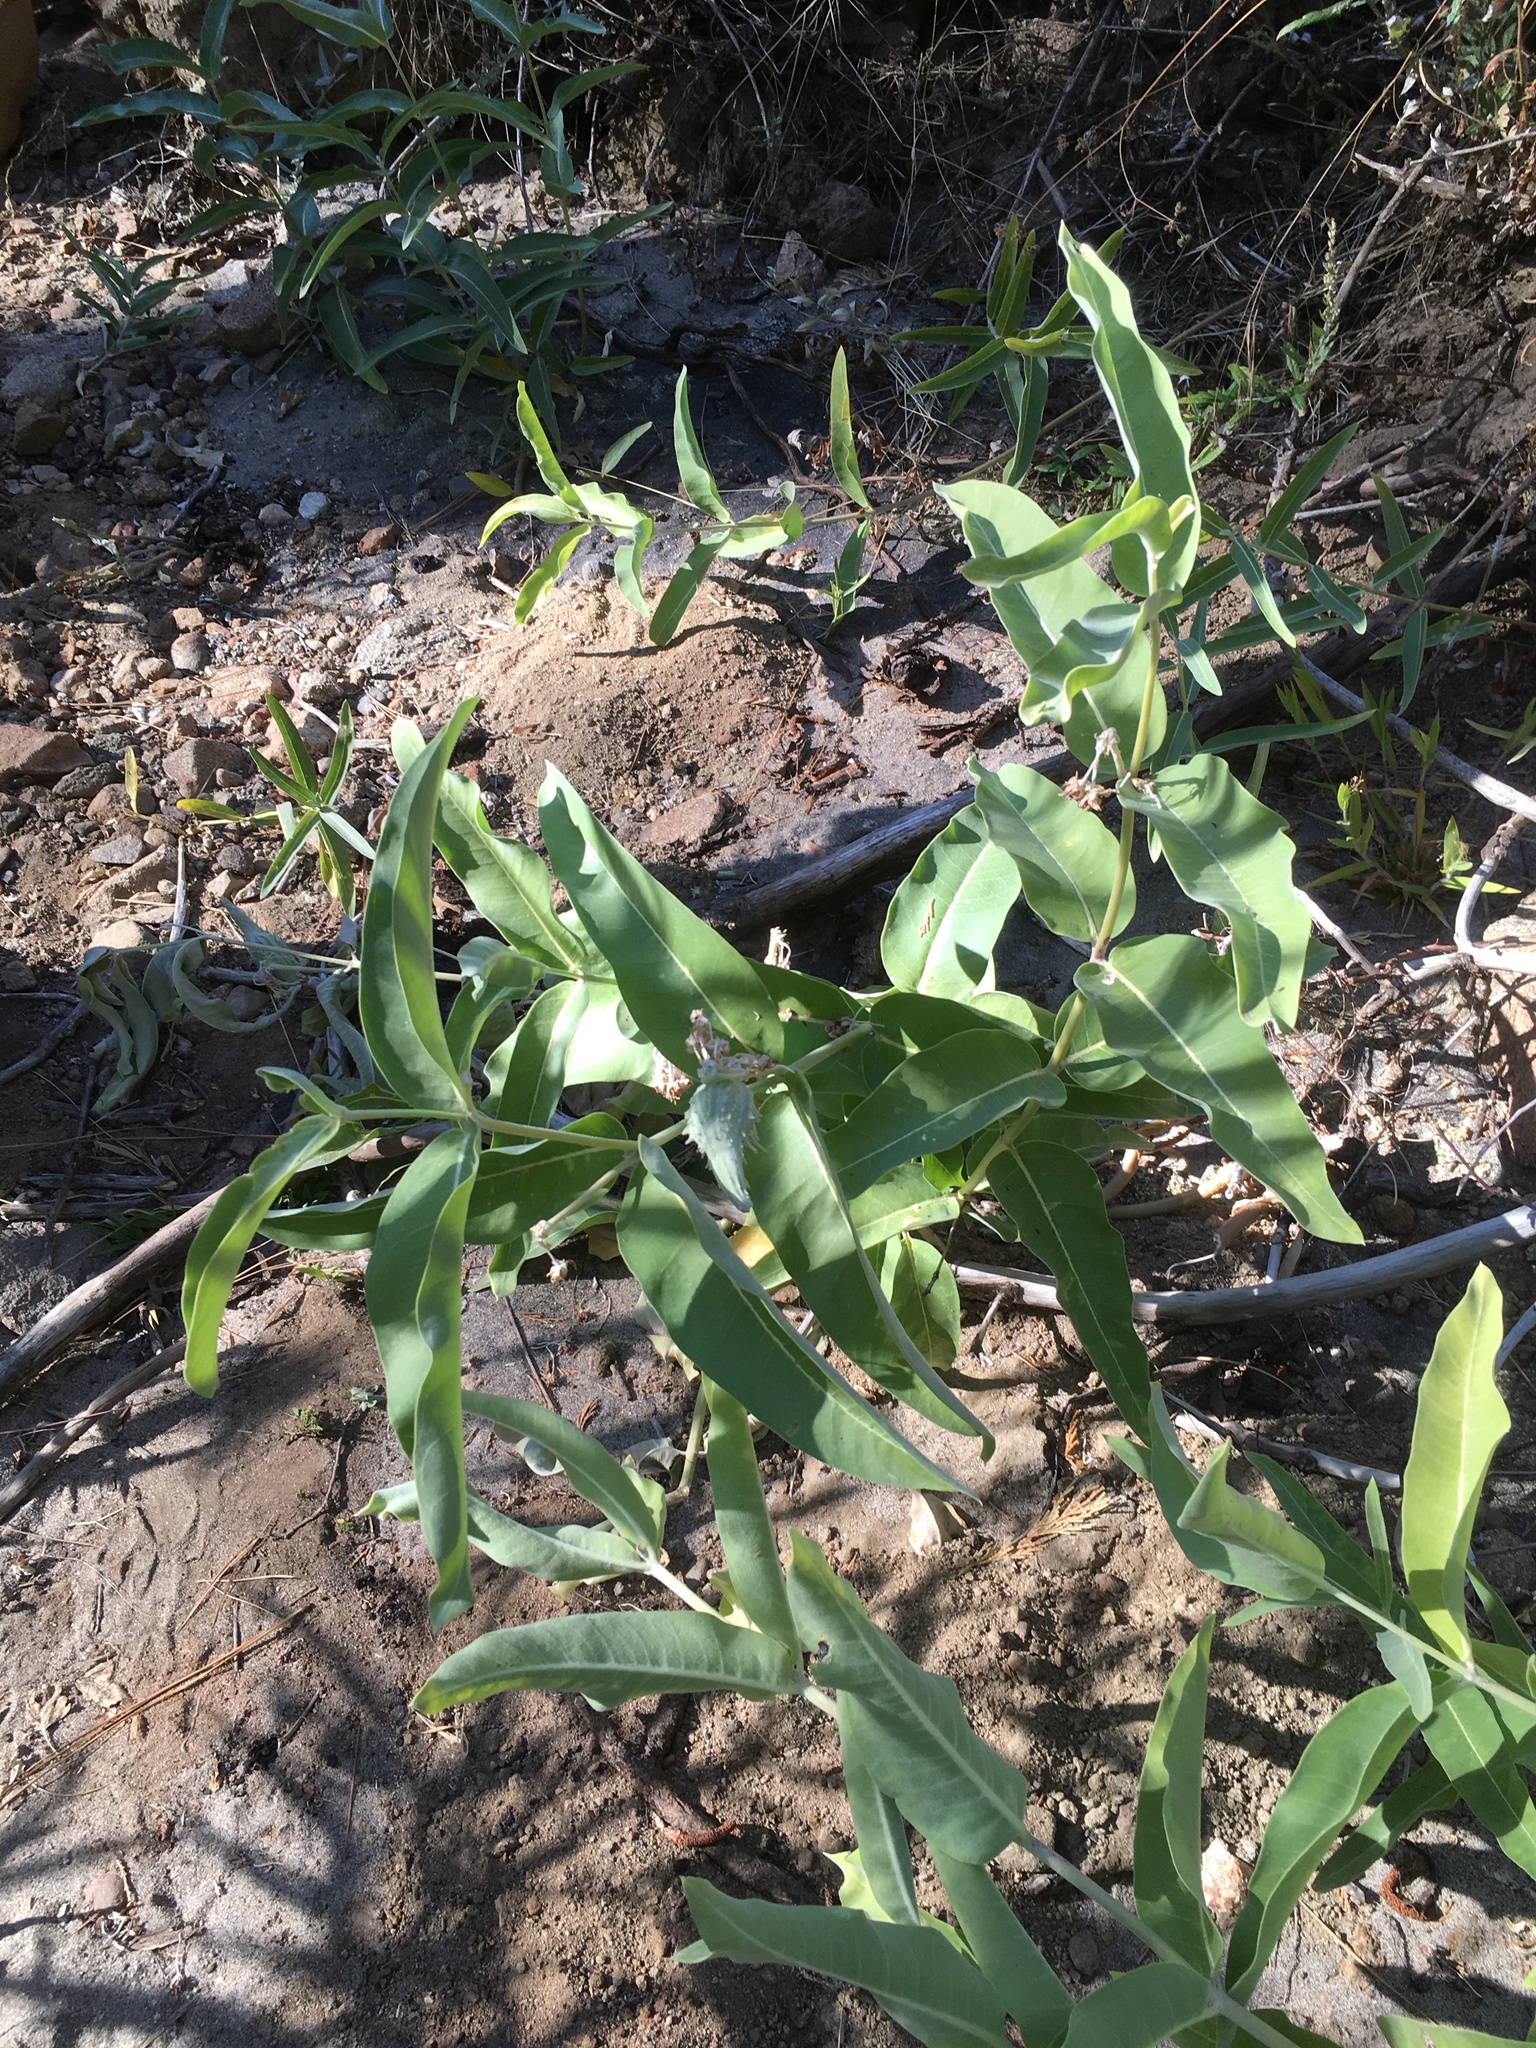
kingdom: Plantae
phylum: Tracheophyta
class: Magnoliopsida
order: Gentianales
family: Apocynaceae
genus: Asclepias
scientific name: Asclepias speciosa
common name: Showy milkweed
